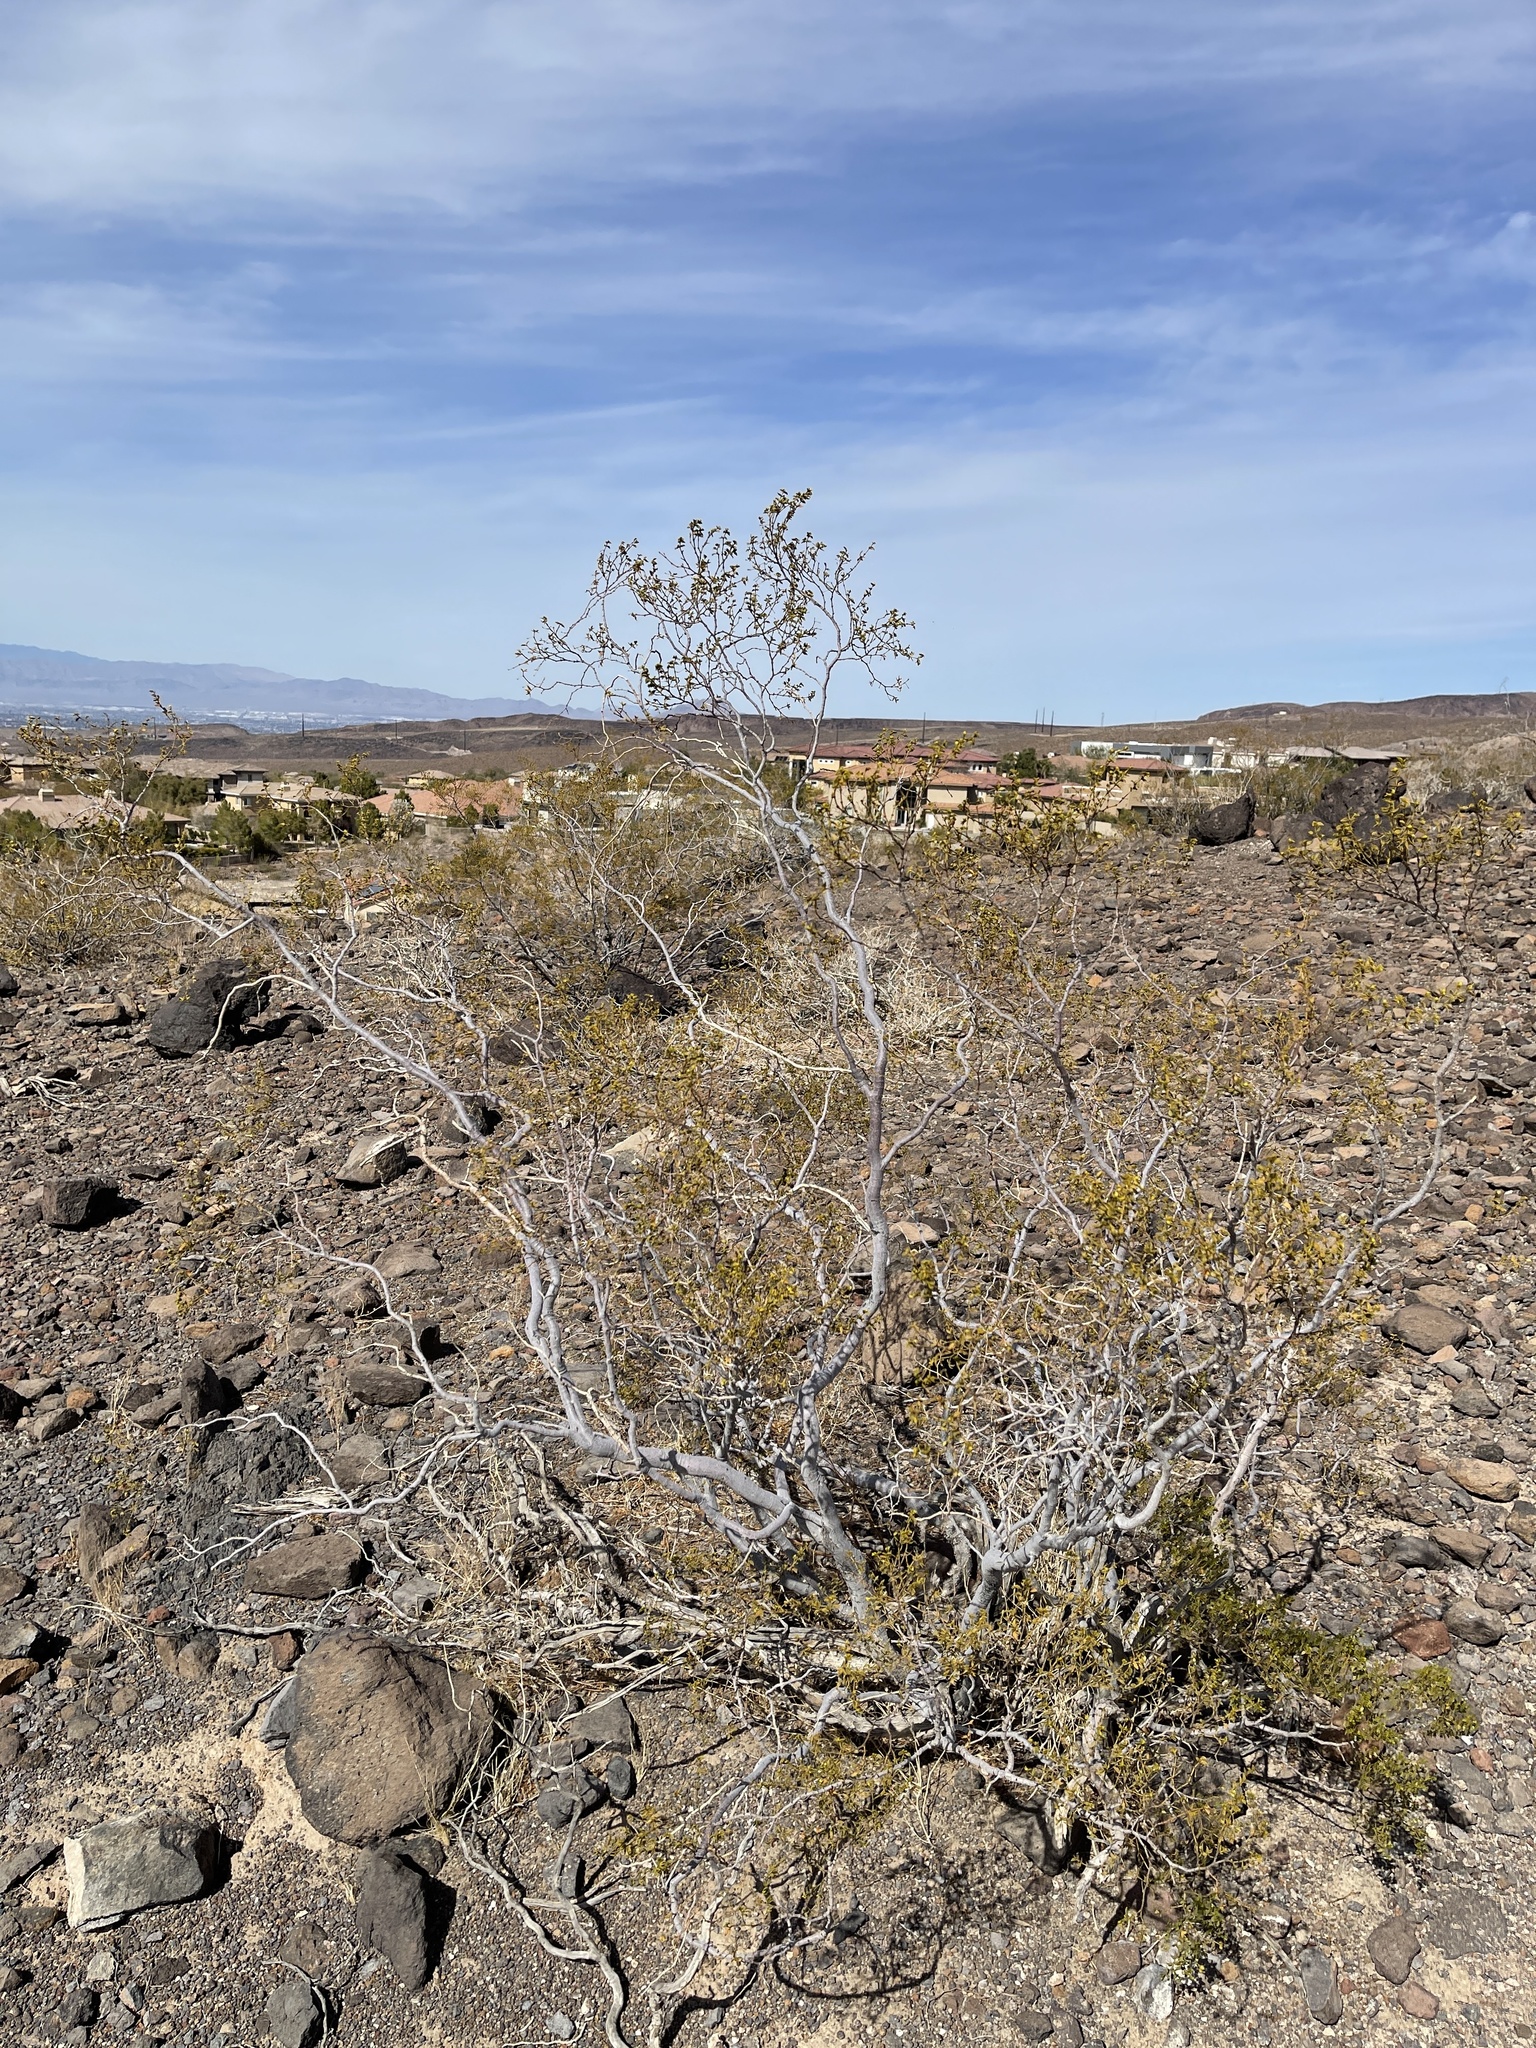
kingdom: Plantae
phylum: Tracheophyta
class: Magnoliopsida
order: Zygophyllales
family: Zygophyllaceae
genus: Larrea
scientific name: Larrea tridentata
